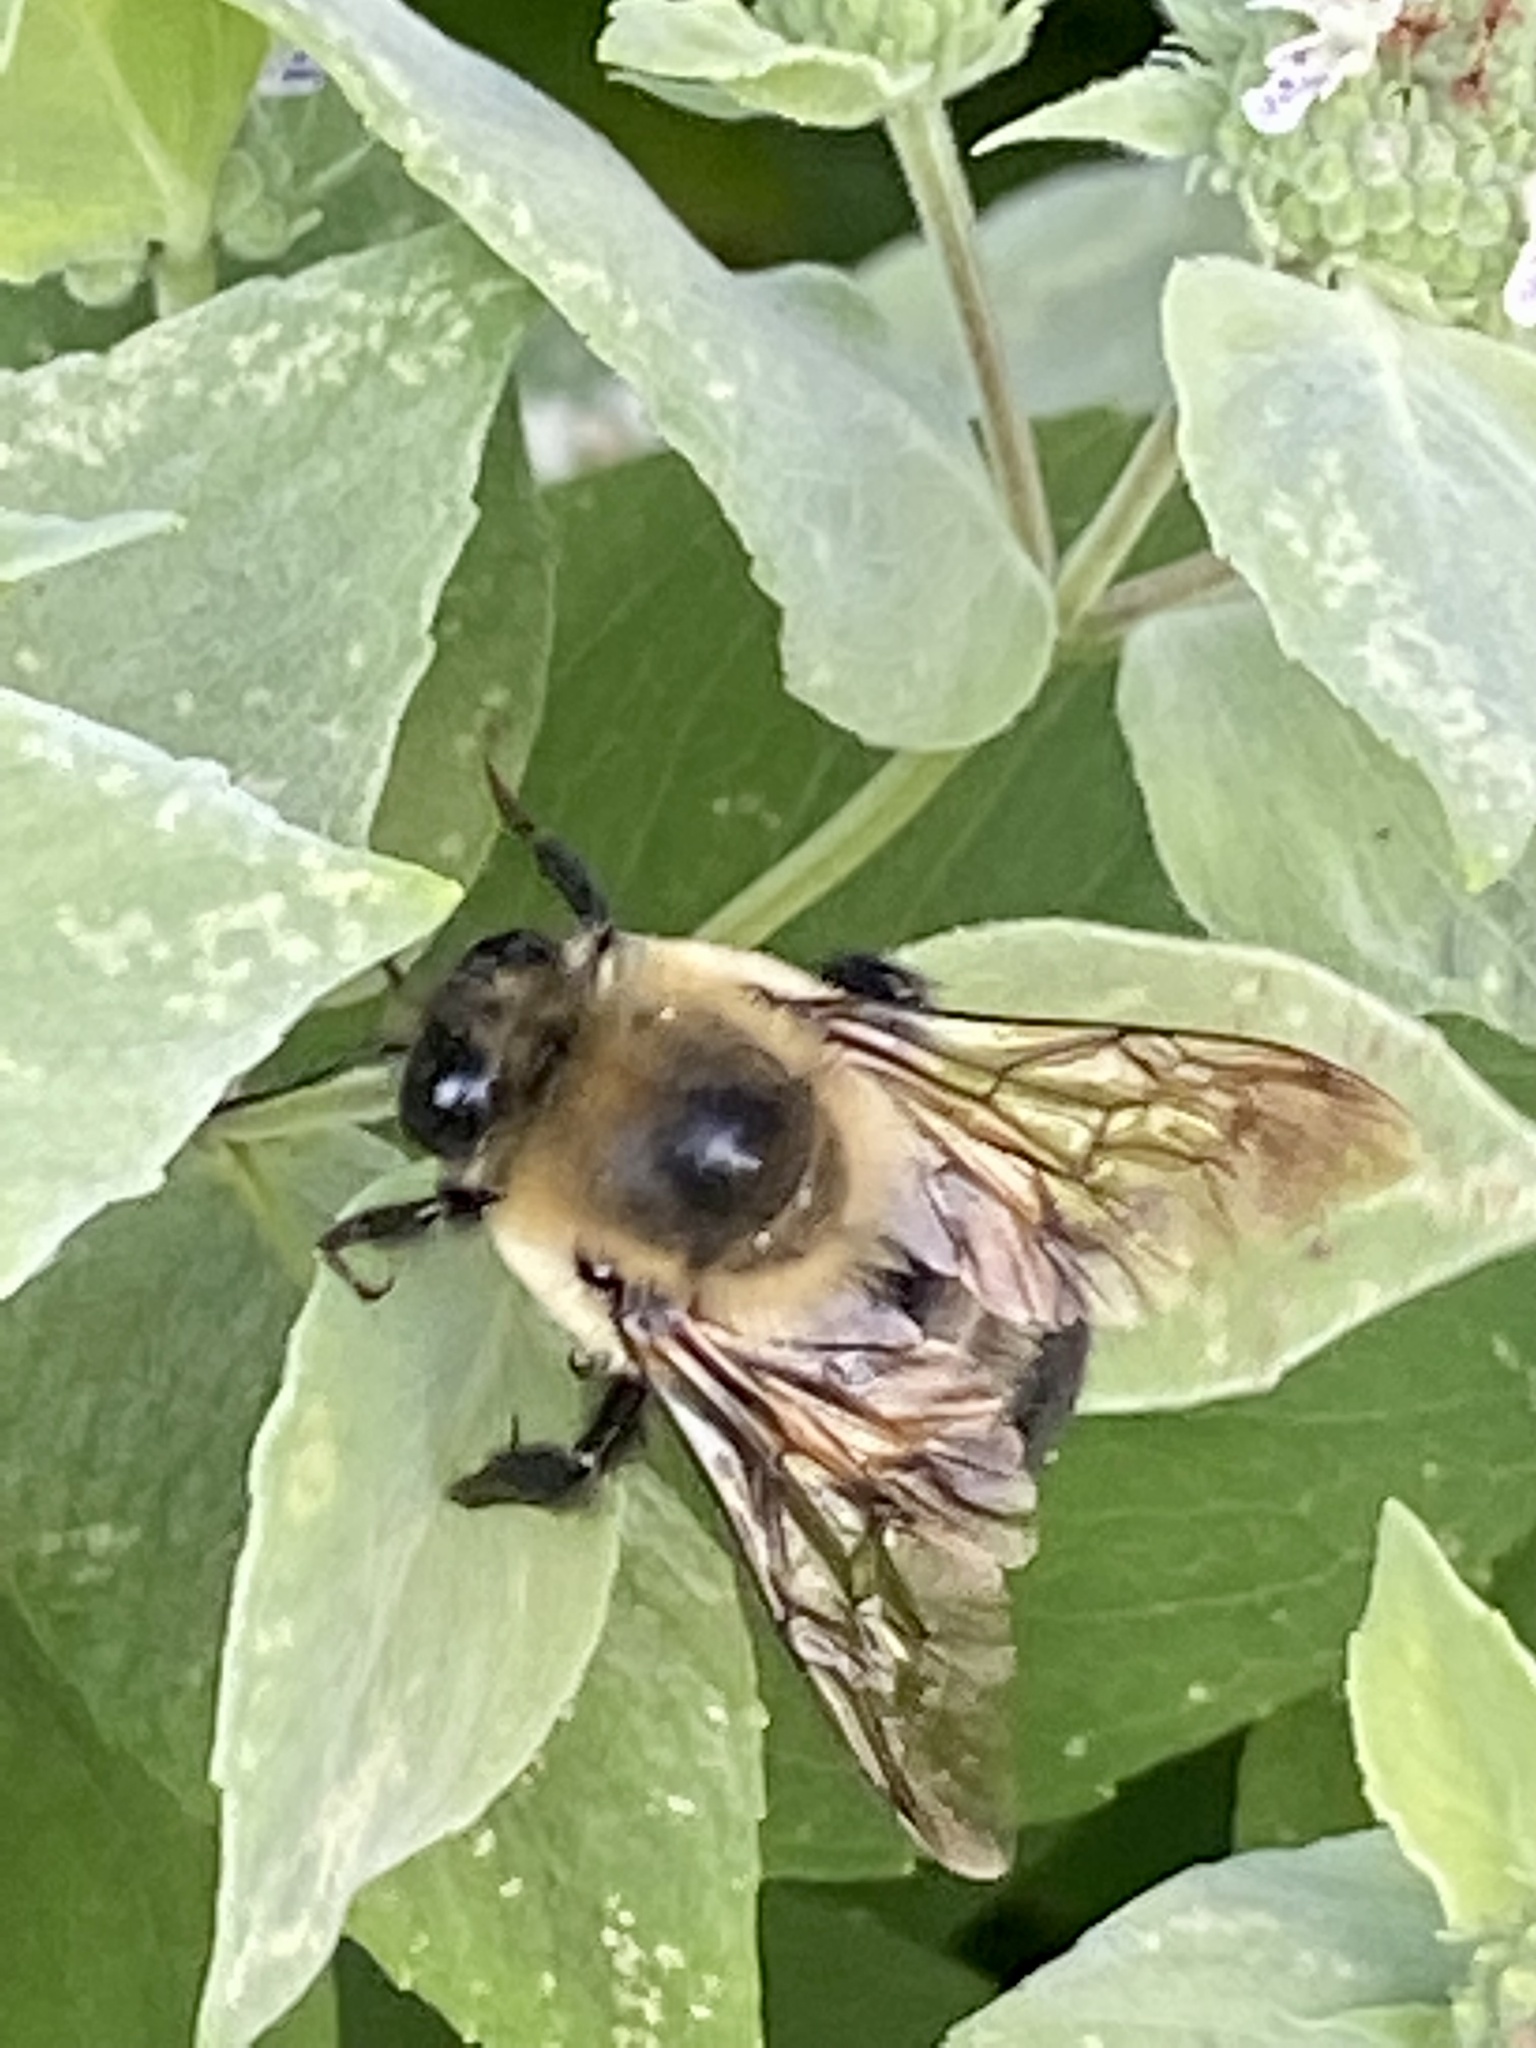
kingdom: Animalia
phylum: Arthropoda
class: Insecta
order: Hymenoptera
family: Apidae
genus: Bombus
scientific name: Bombus griseocollis
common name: Brown-belted bumble bee
